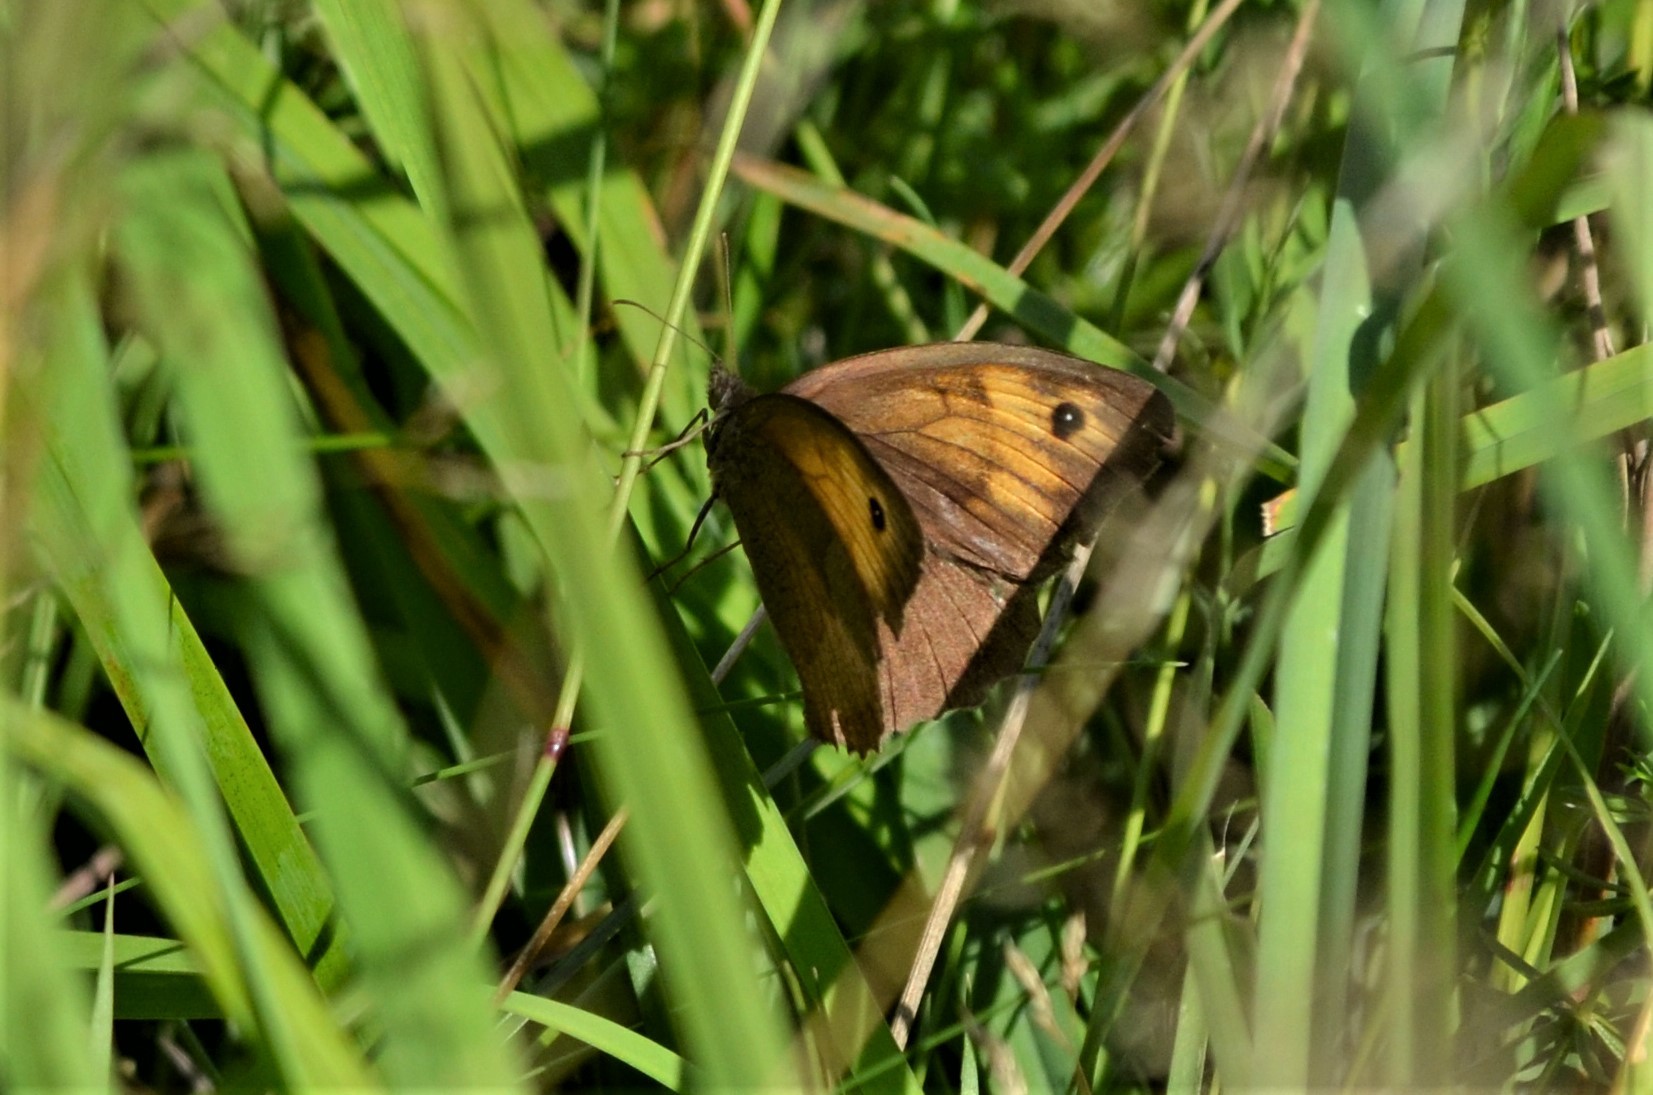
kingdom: Animalia
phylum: Arthropoda
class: Insecta
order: Lepidoptera
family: Nymphalidae
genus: Maniola
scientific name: Maniola jurtina
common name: Meadow brown
